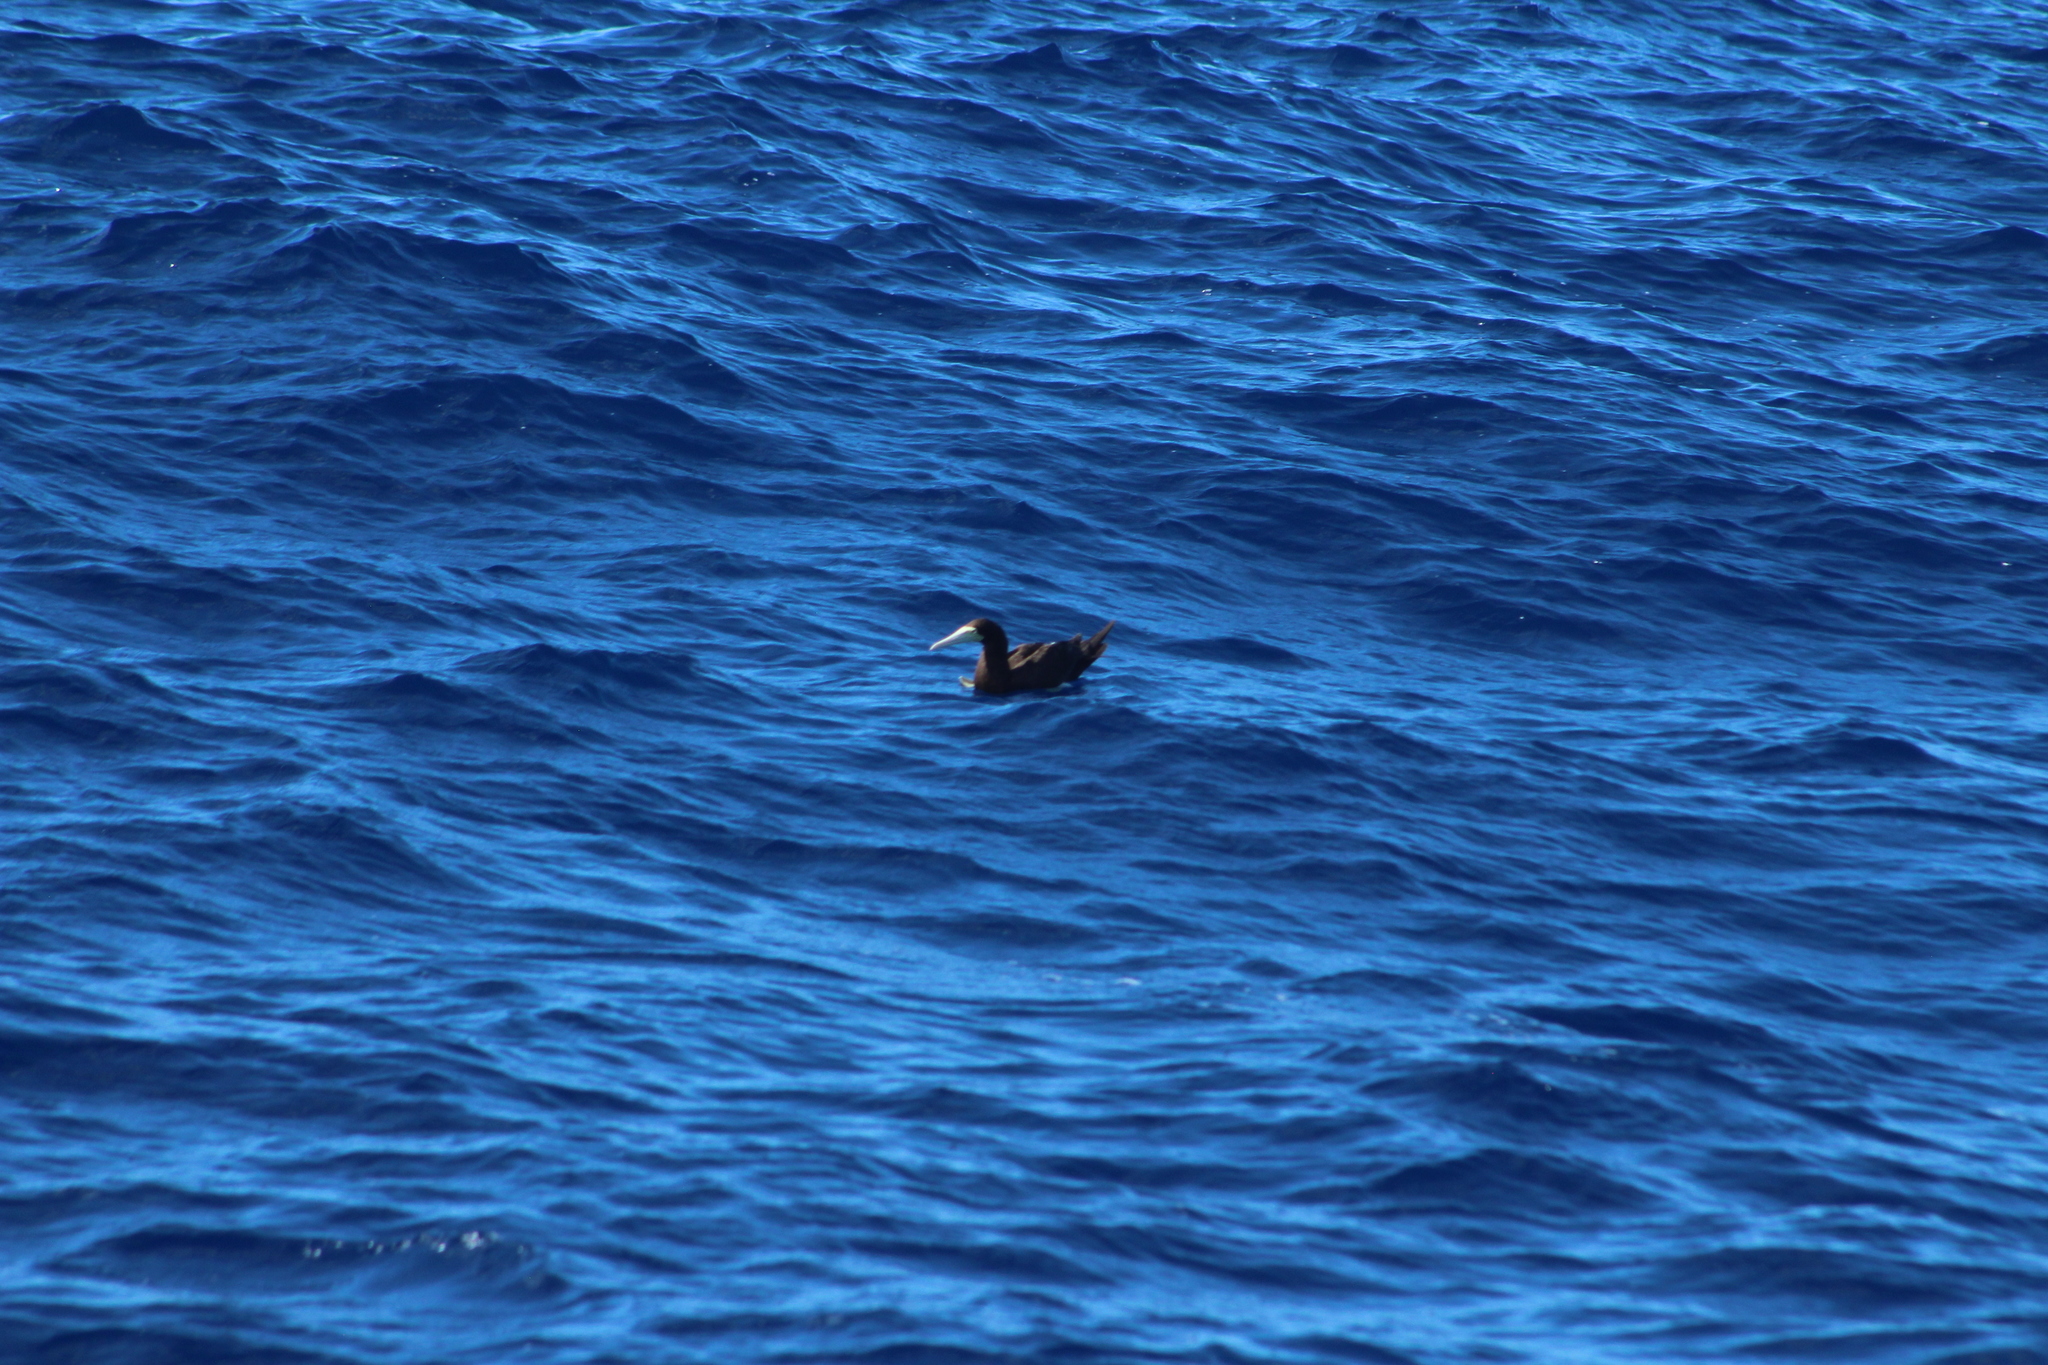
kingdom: Animalia
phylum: Chordata
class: Aves
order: Suliformes
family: Sulidae
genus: Sula
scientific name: Sula leucogaster
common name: Brown booby
